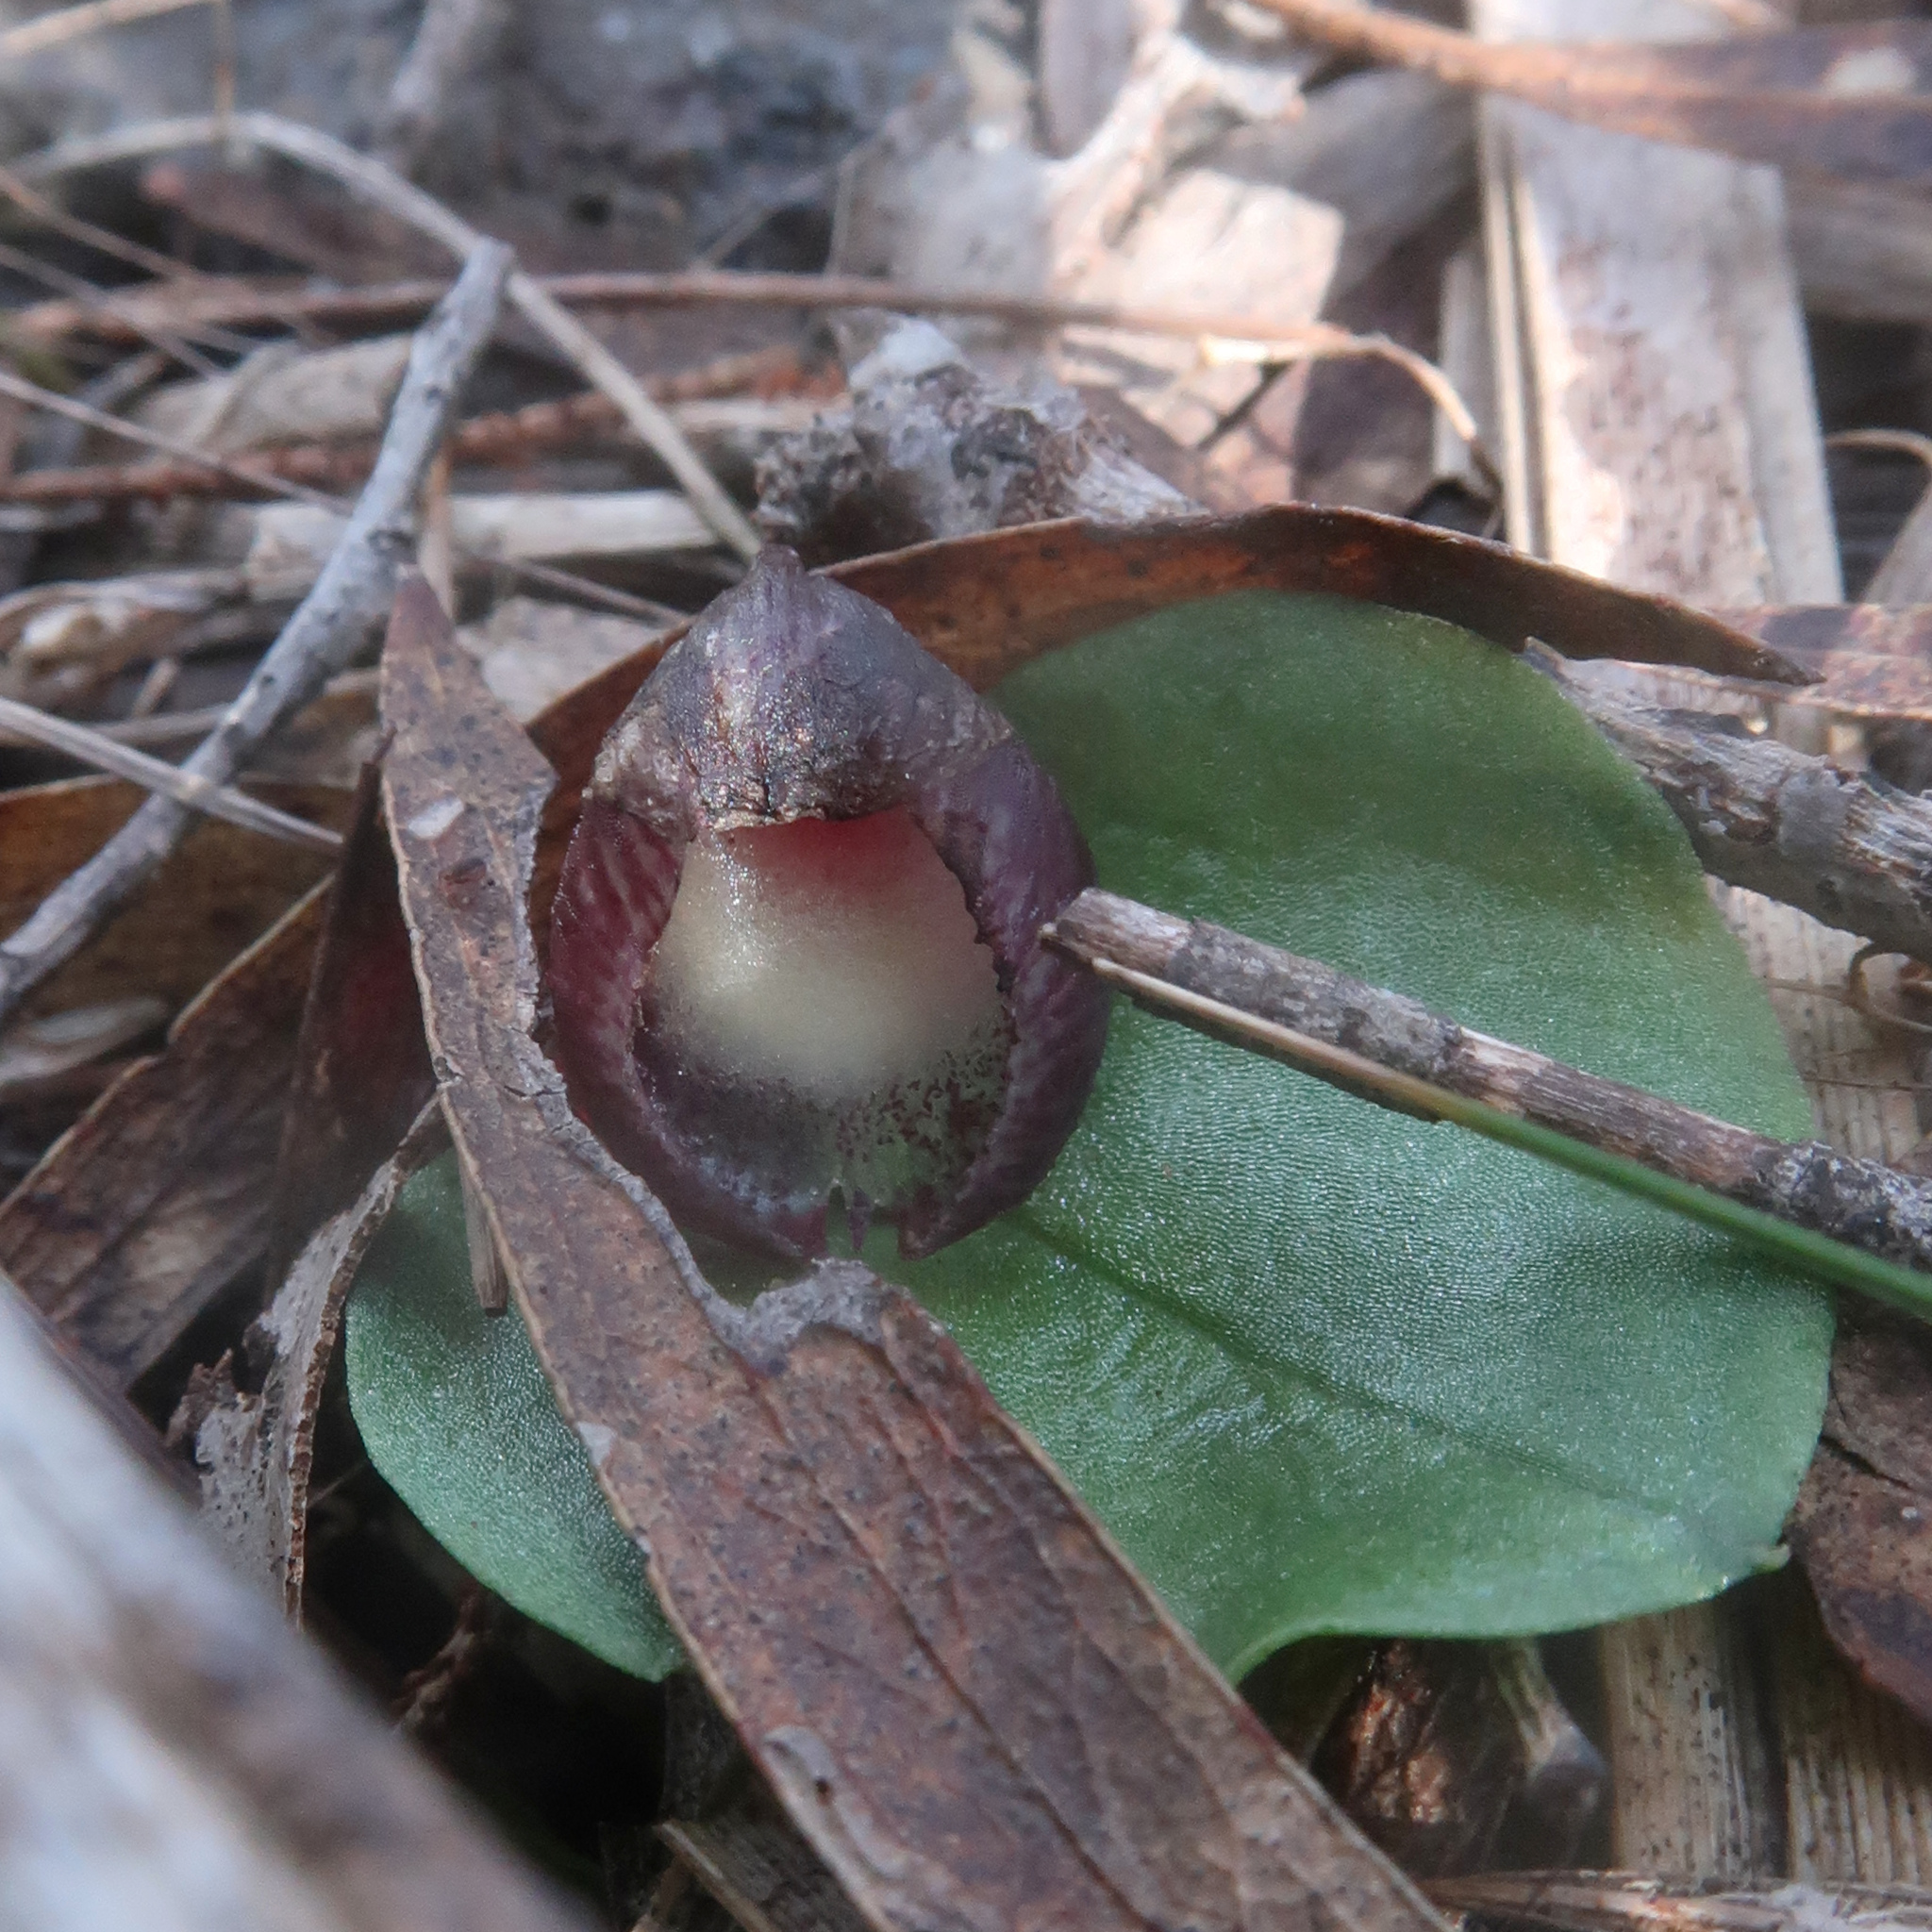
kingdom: Plantae
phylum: Tracheophyta
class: Liliopsida
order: Asparagales
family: Orchidaceae
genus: Corybas
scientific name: Corybas incurvus
